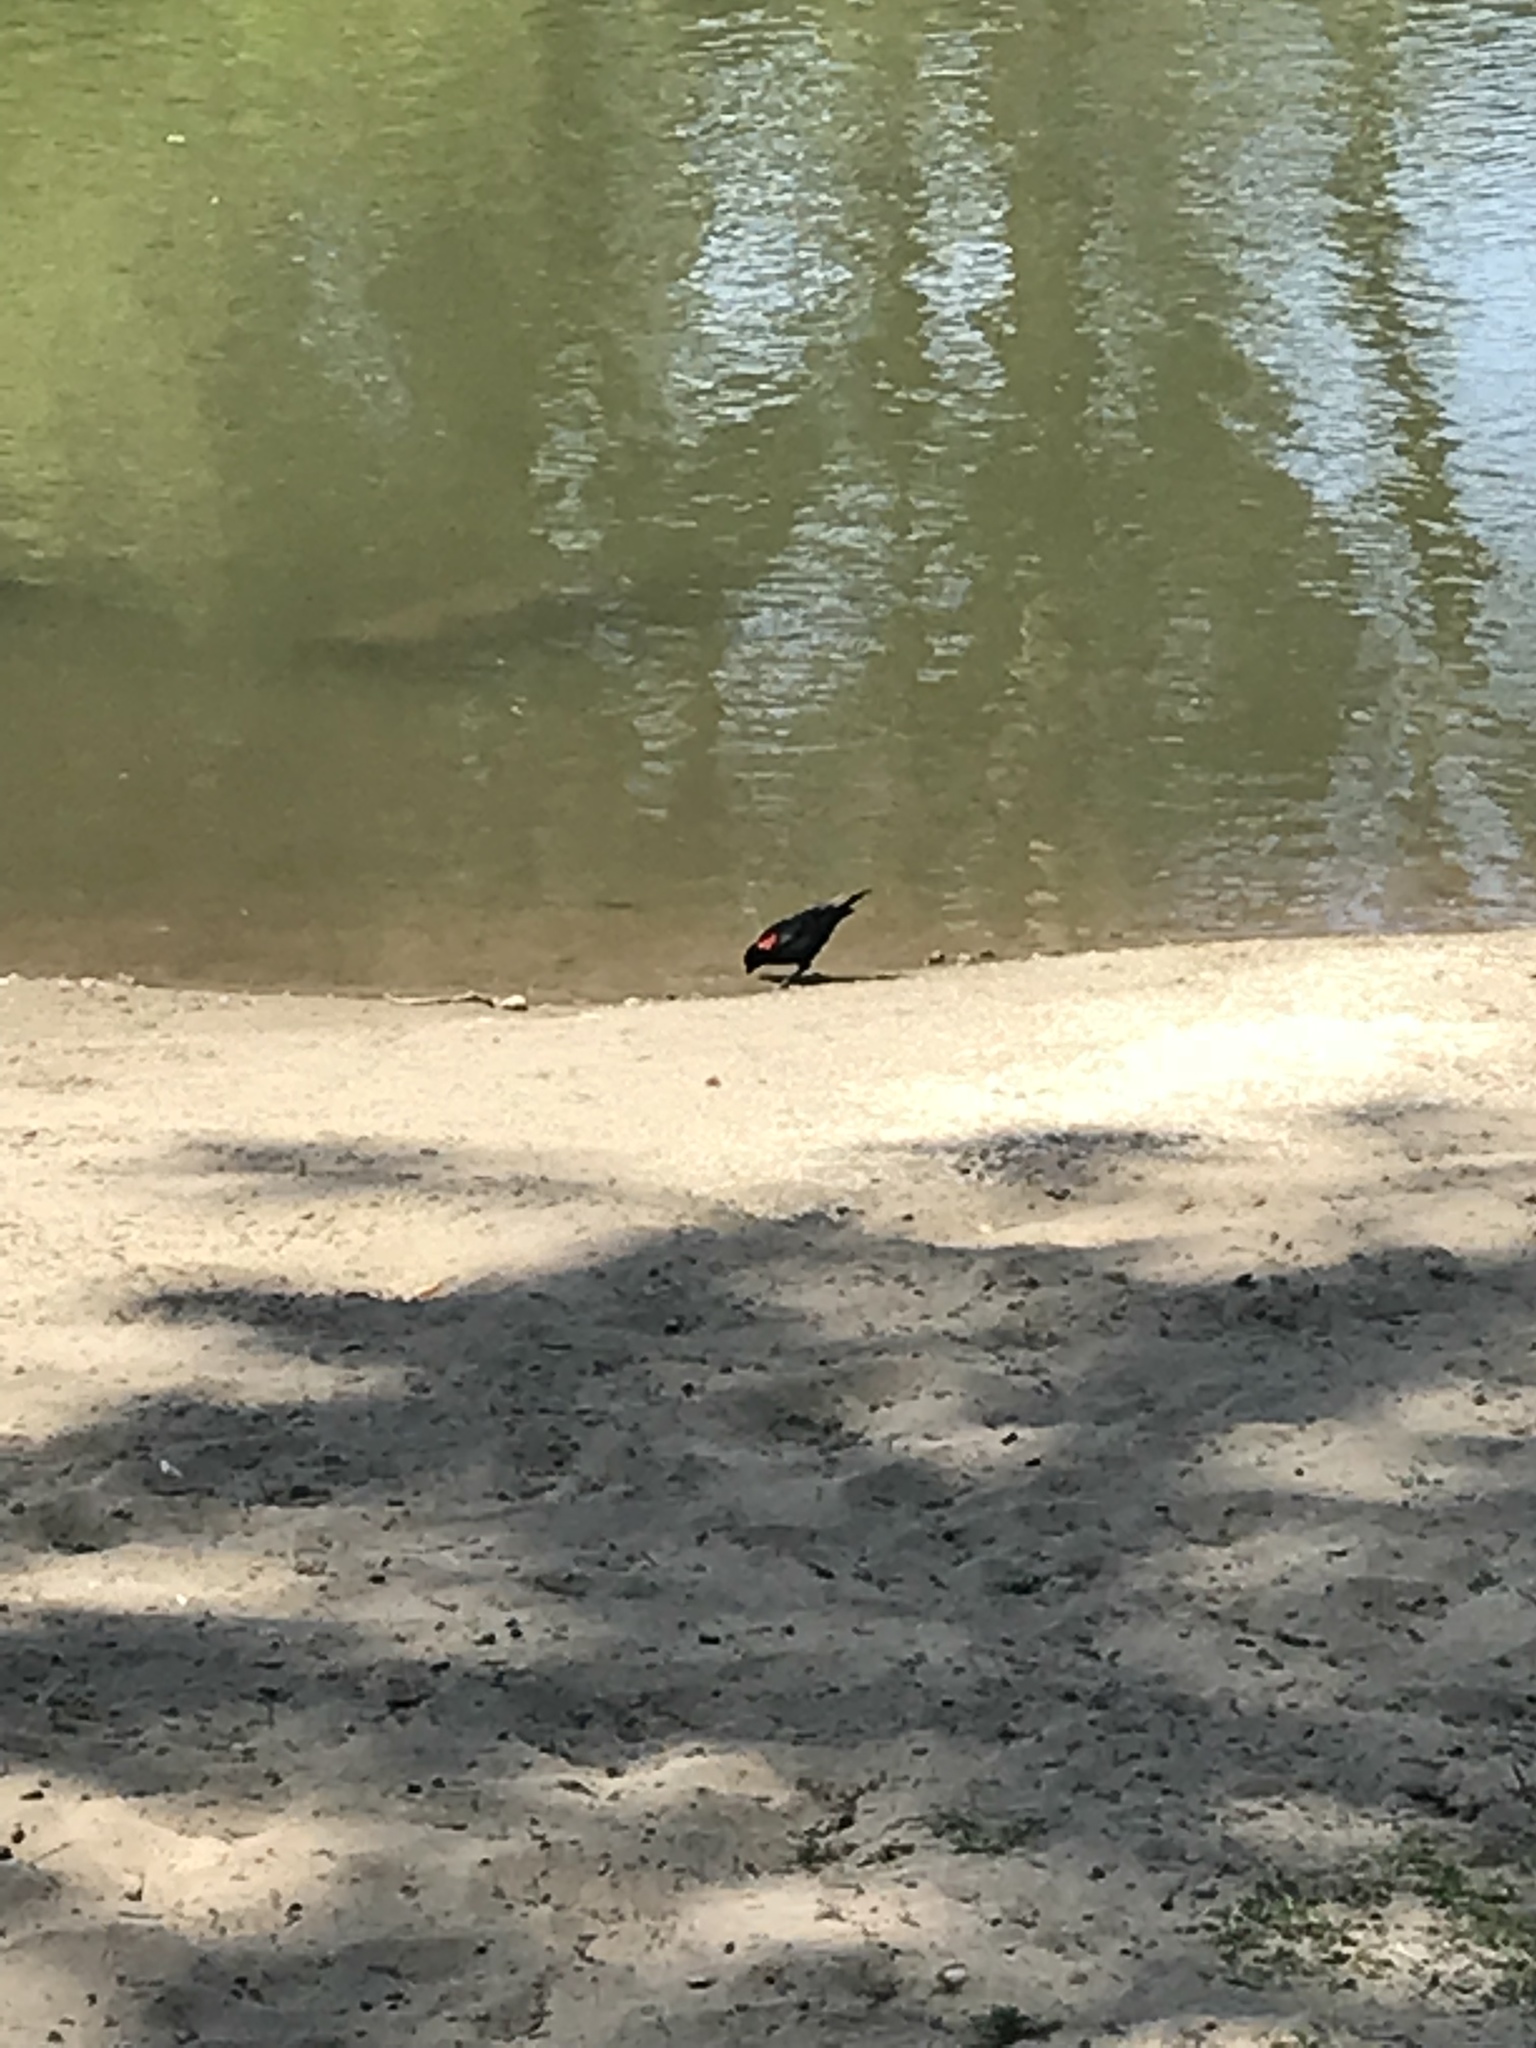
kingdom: Animalia
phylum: Chordata
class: Aves
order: Passeriformes
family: Icteridae
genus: Agelaius
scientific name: Agelaius phoeniceus
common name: Red-winged blackbird
